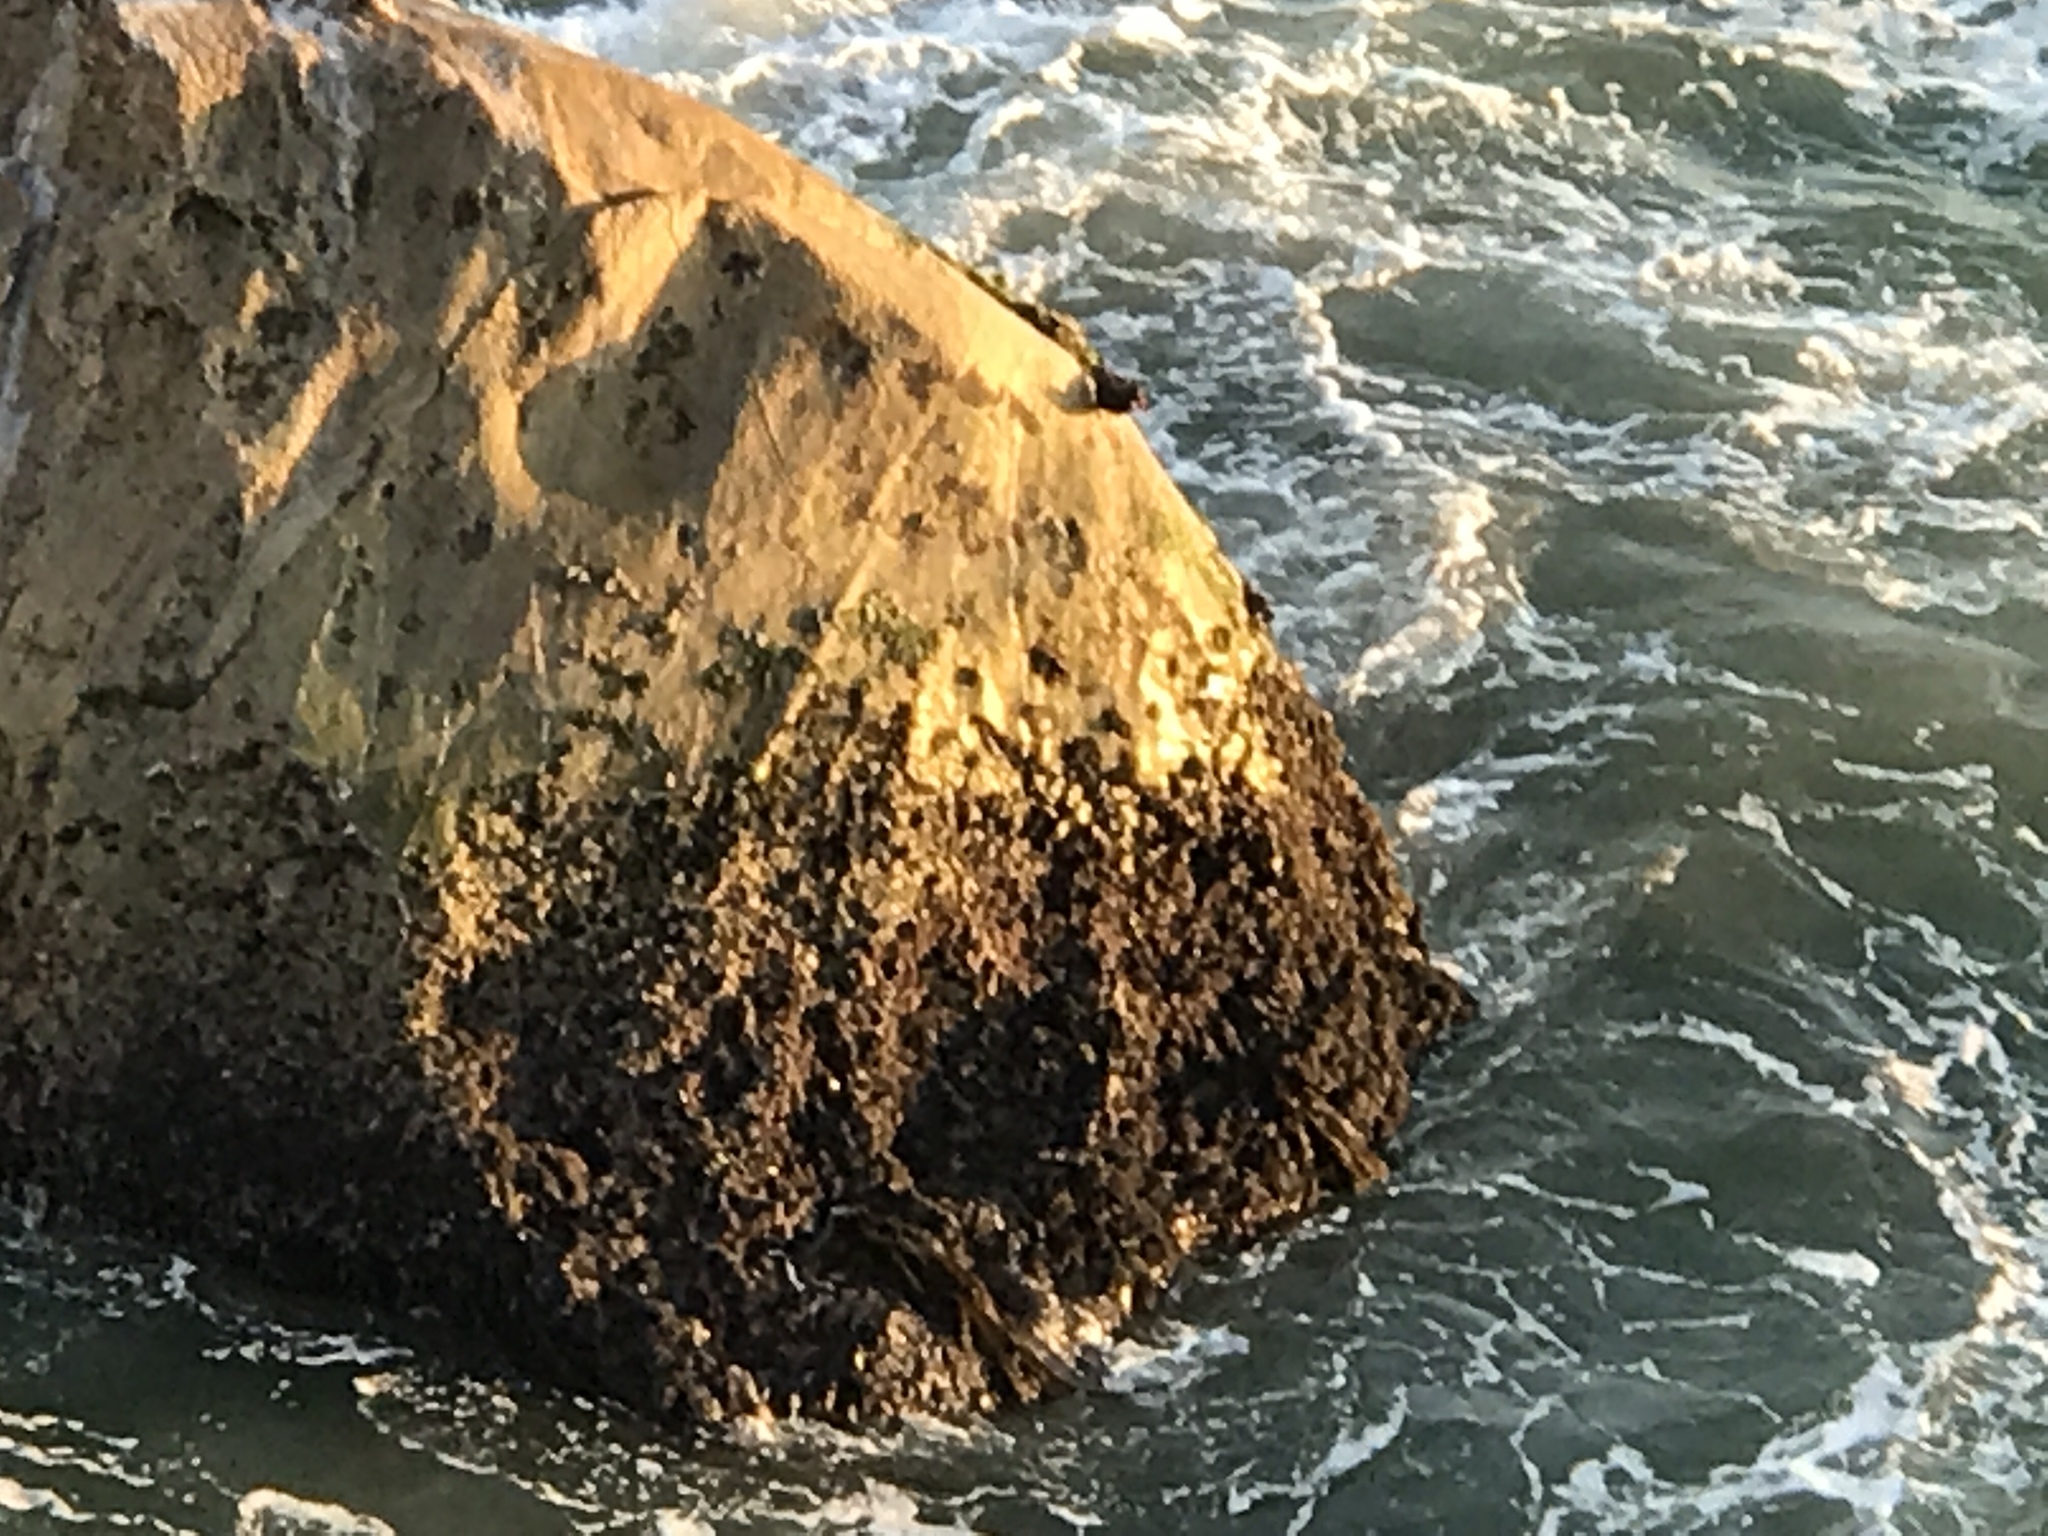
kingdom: Animalia
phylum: Chordata
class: Aves
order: Charadriiformes
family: Haematopodidae
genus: Haematopus
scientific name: Haematopus bachmani
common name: Black oystercatcher
